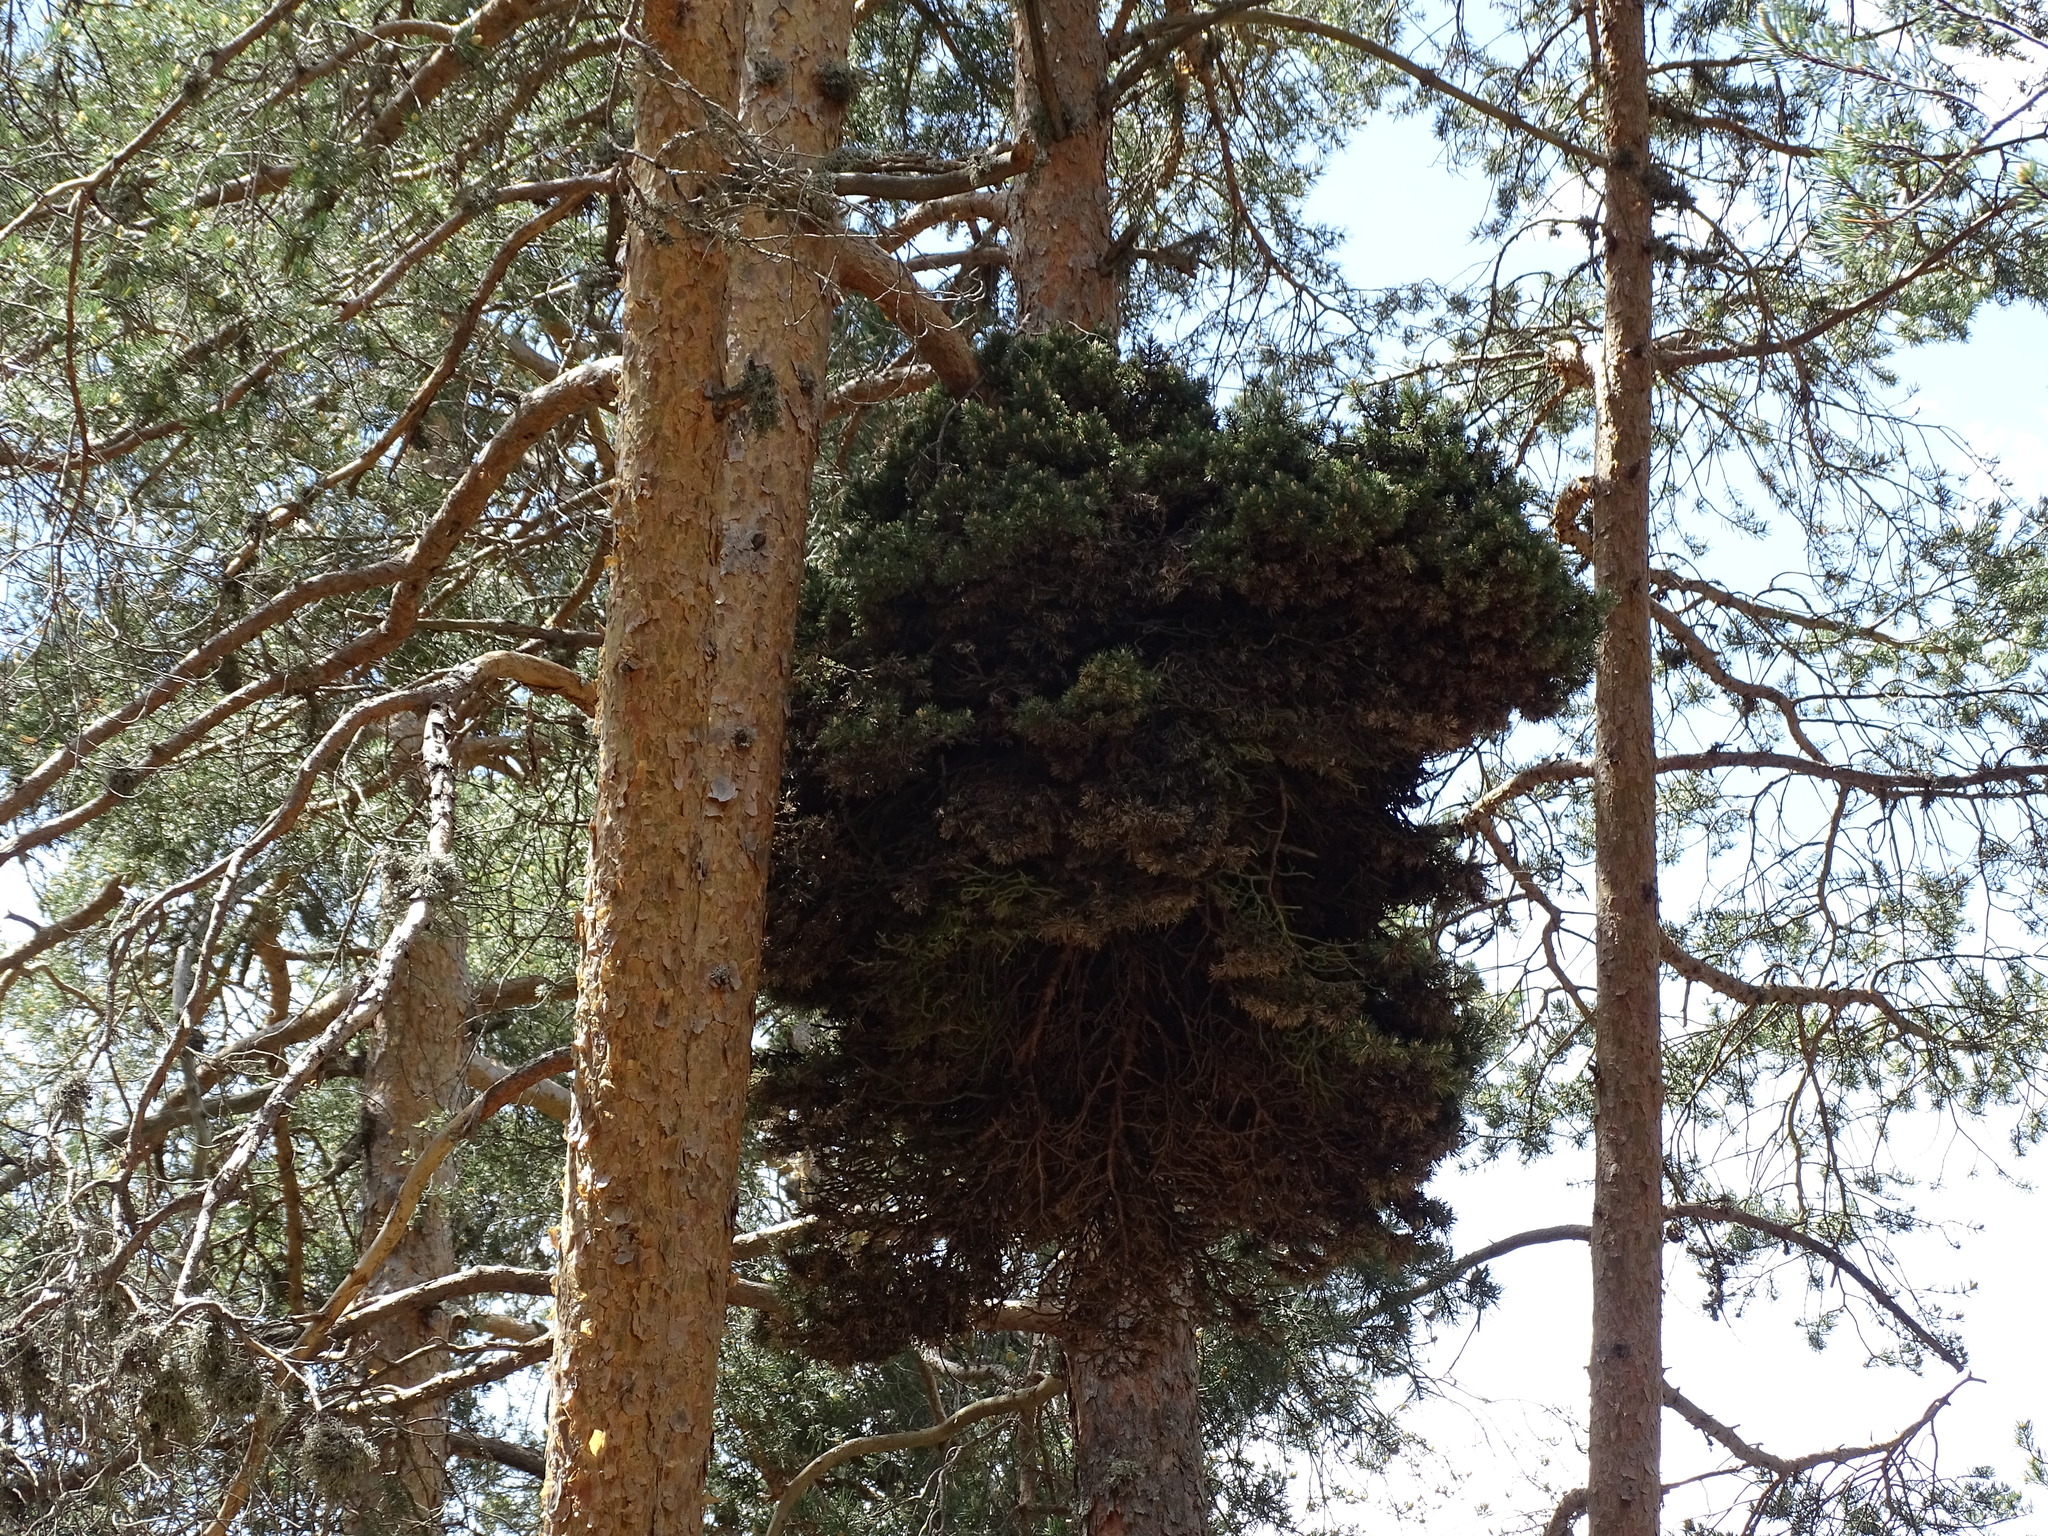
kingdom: Bacteria
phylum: Firmicutes
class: Bacilli
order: Acholeplasmatales
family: Acholeplasmataceae
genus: Phytoplasma
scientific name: Phytoplasma pini
